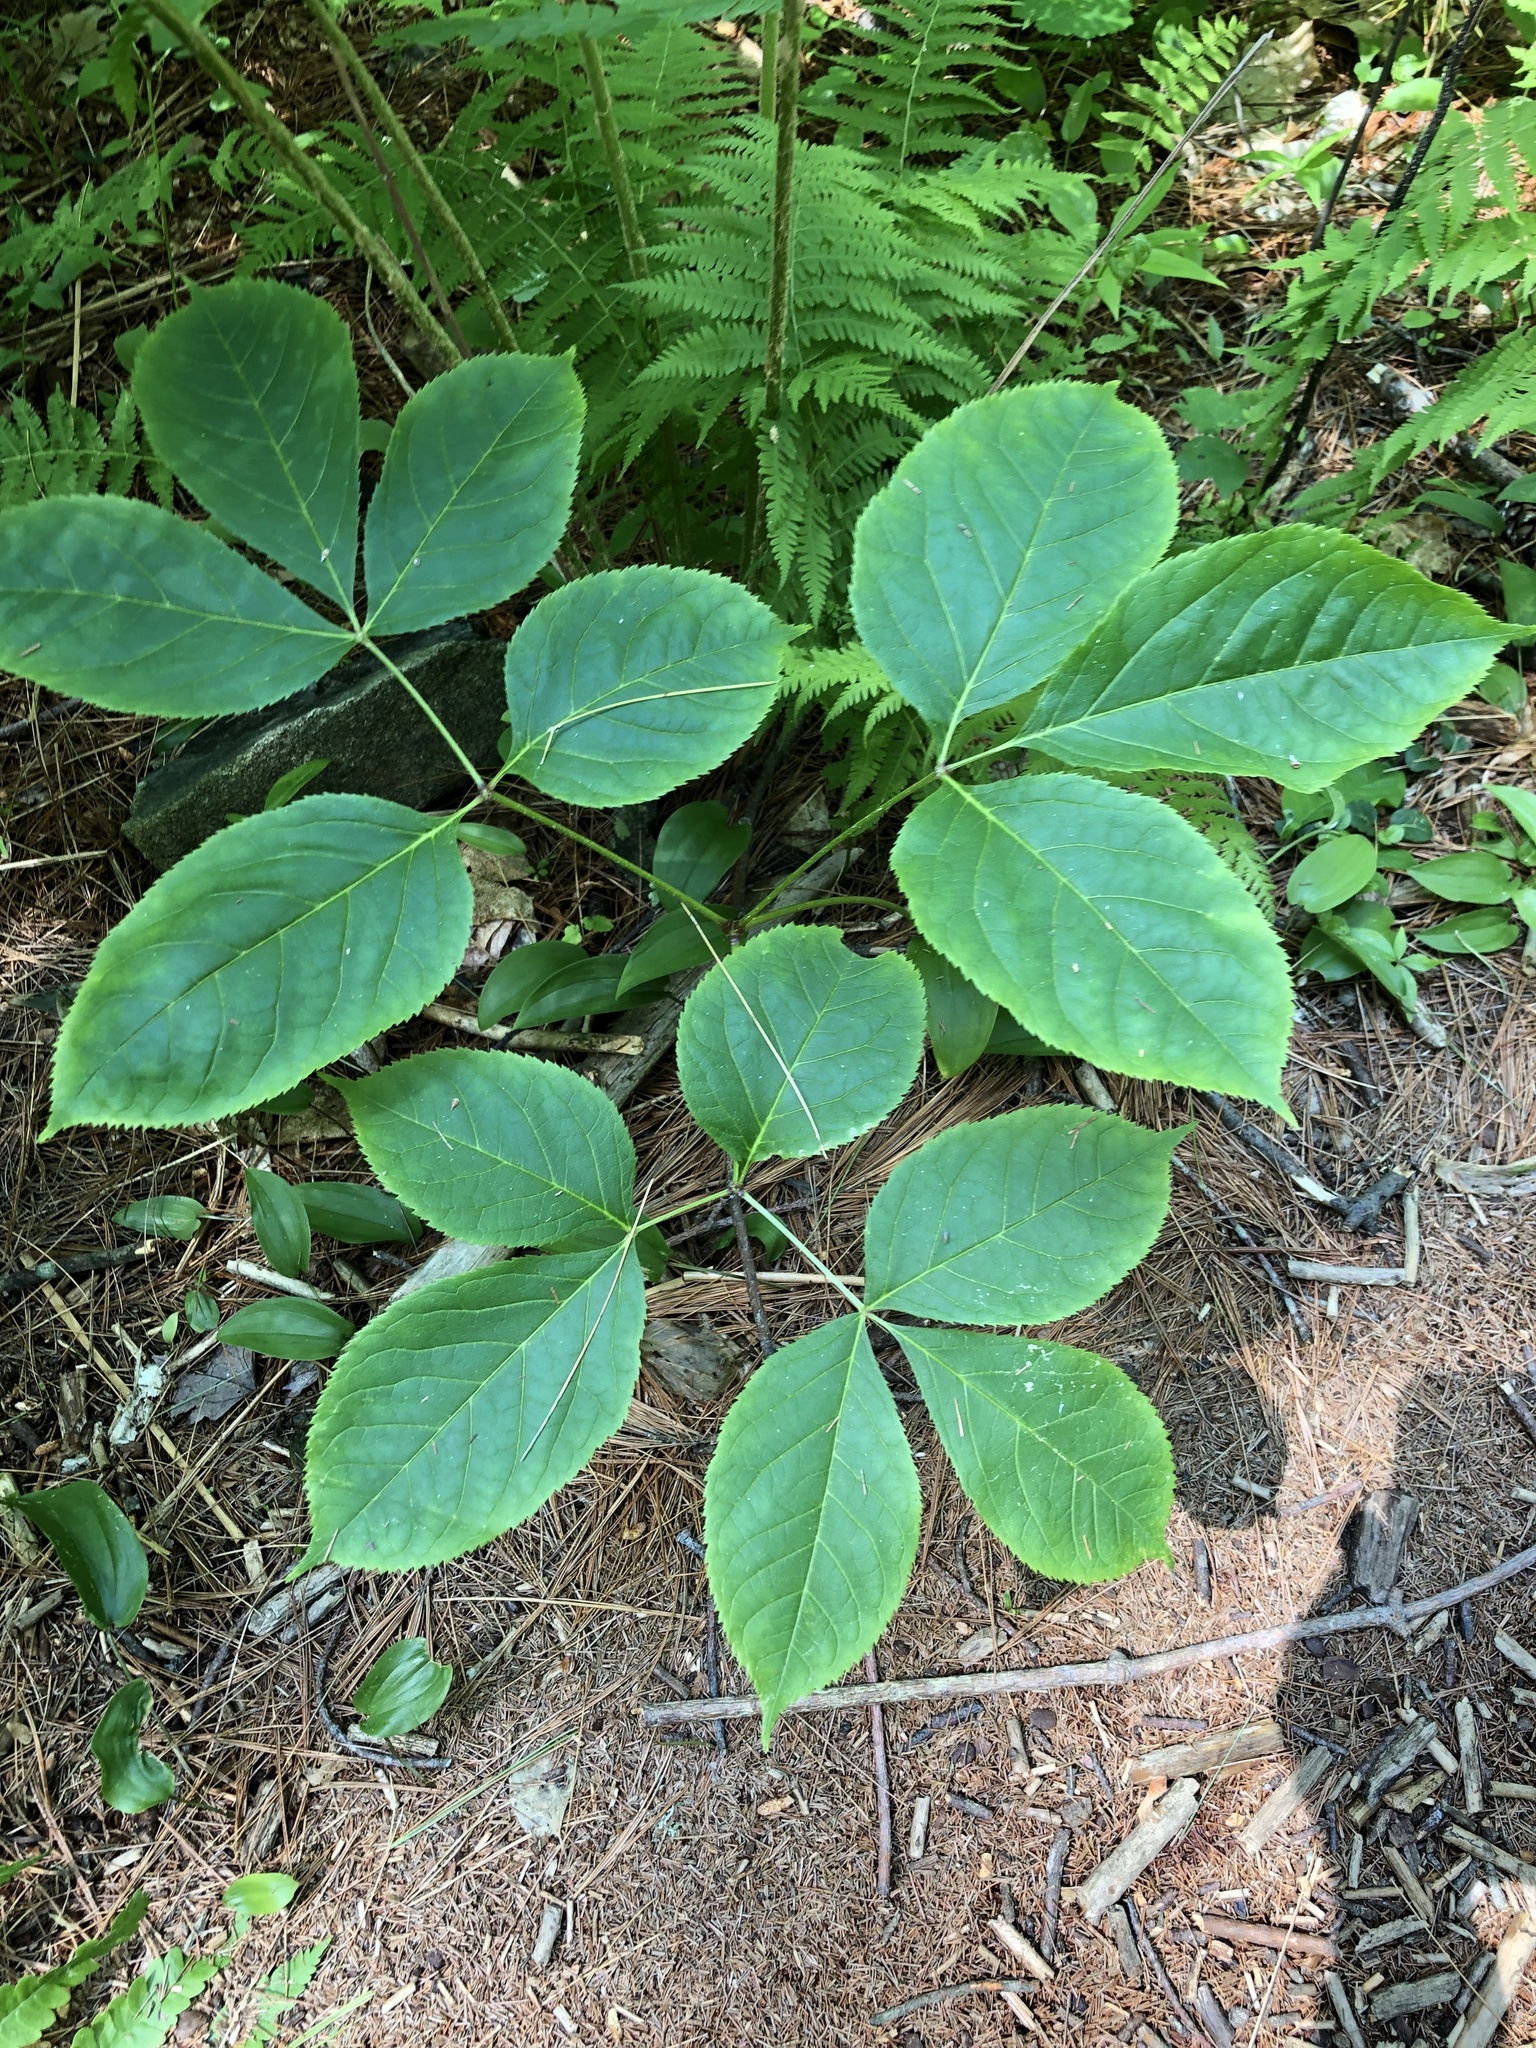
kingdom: Plantae
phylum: Tracheophyta
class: Magnoliopsida
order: Apiales
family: Araliaceae
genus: Aralia
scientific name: Aralia nudicaulis
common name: Wild sarsaparilla
